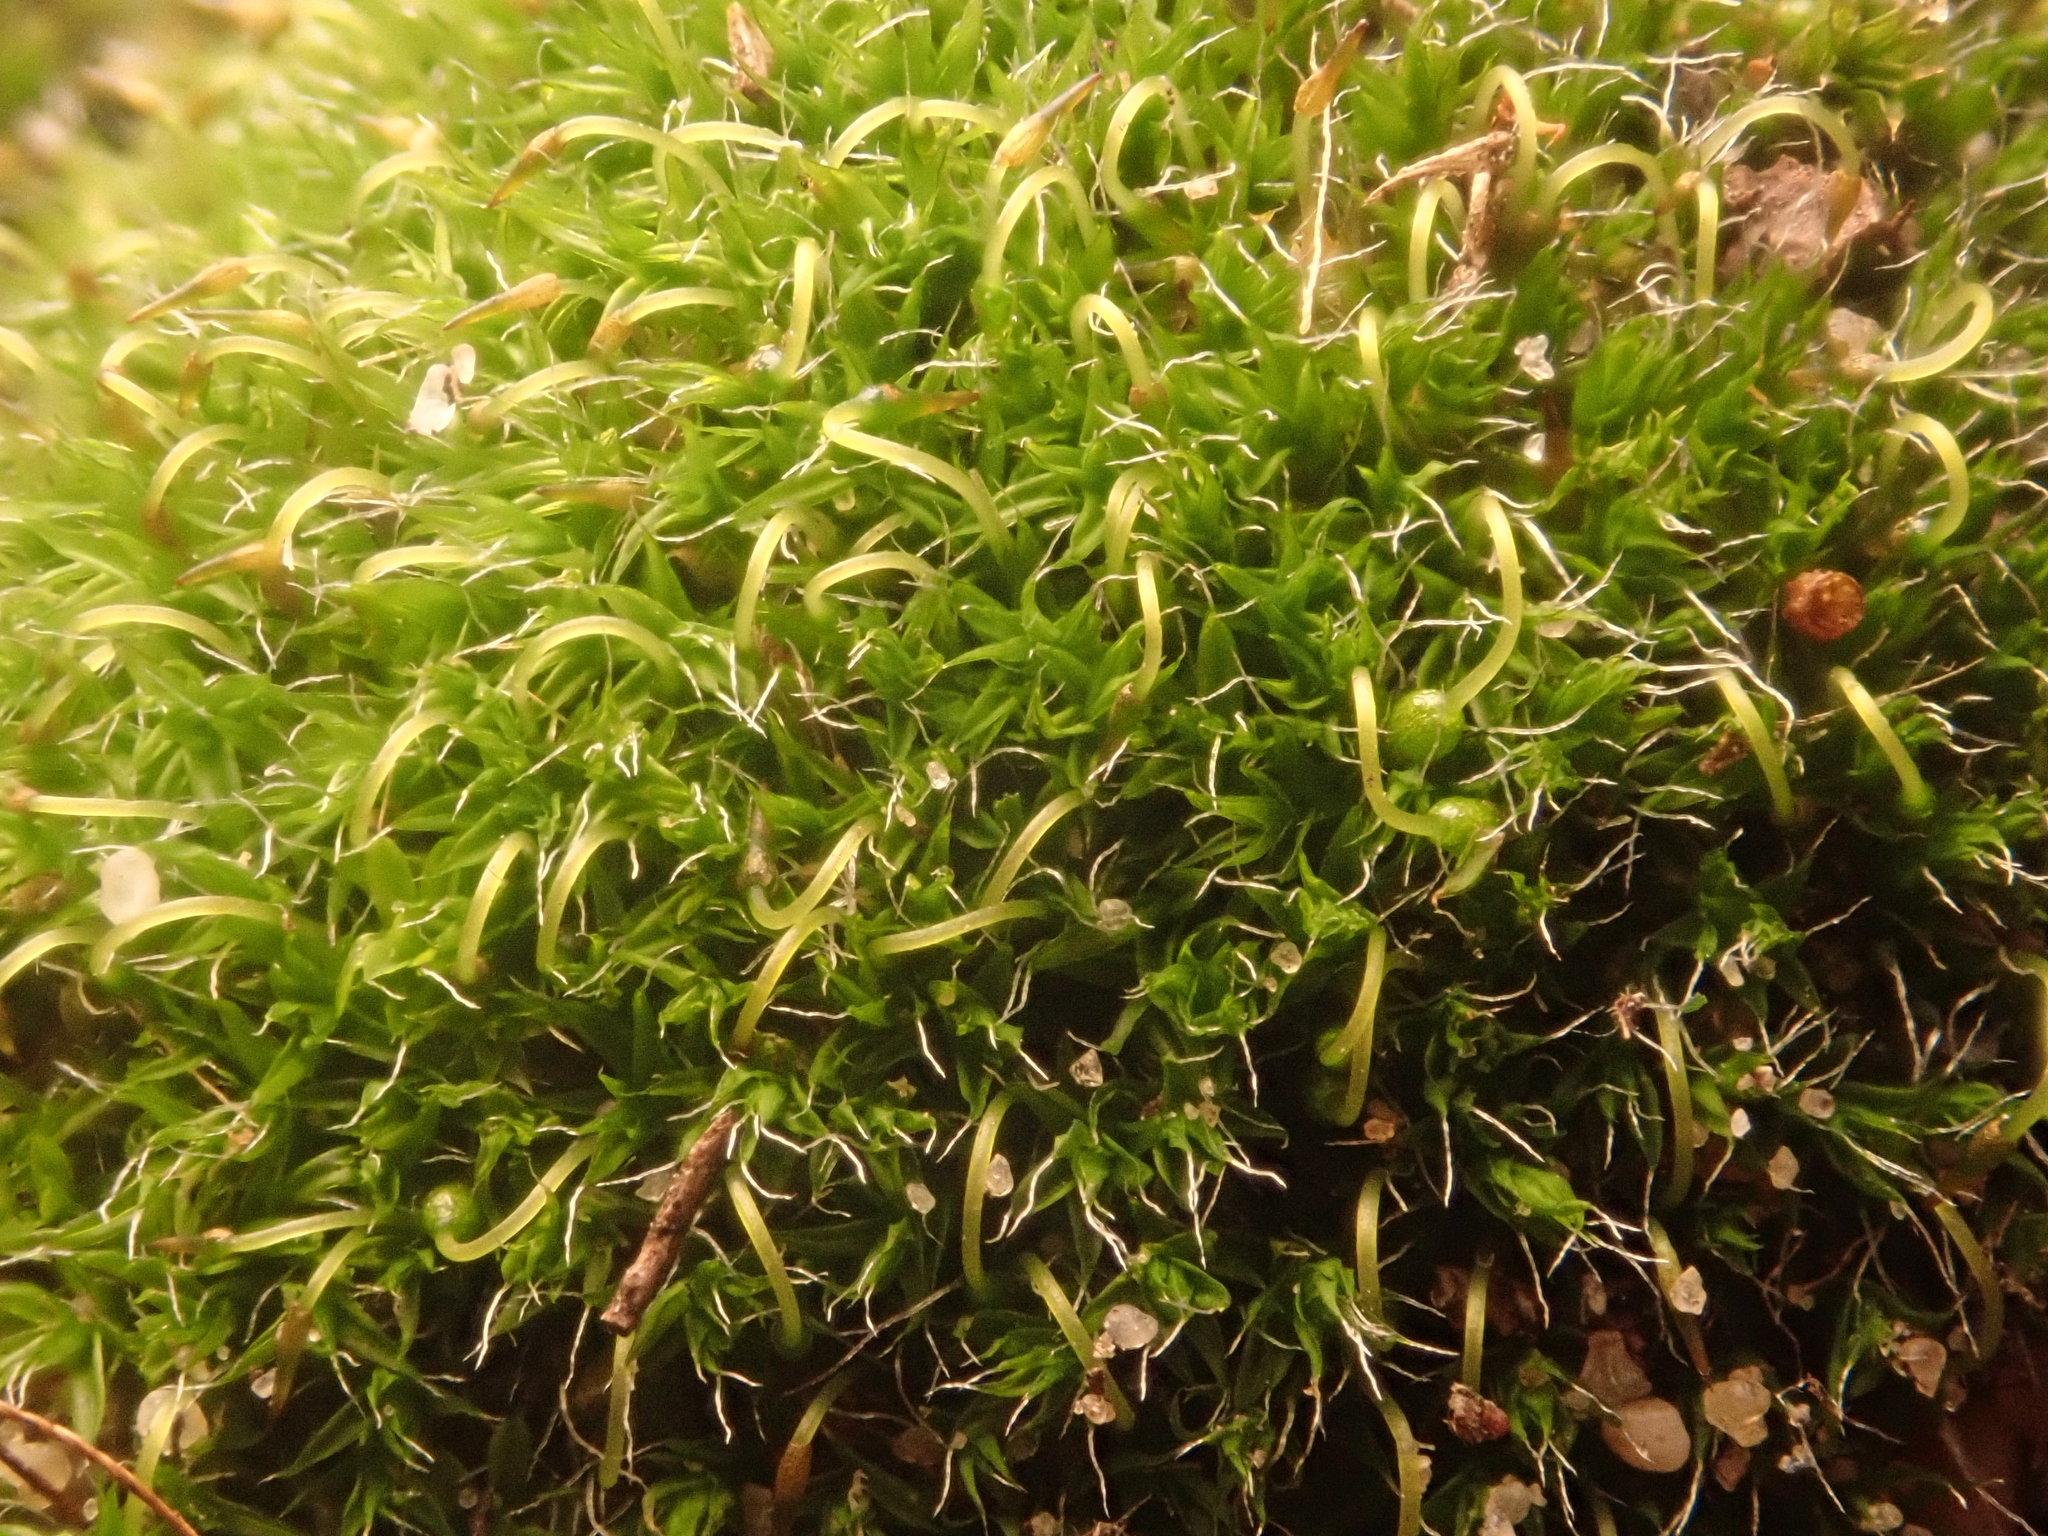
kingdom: Plantae
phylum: Bryophyta
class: Bryopsida
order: Grimmiales
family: Grimmiaceae
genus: Grimmia
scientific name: Grimmia pulvinata
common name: Grey-cushioned grimmia
